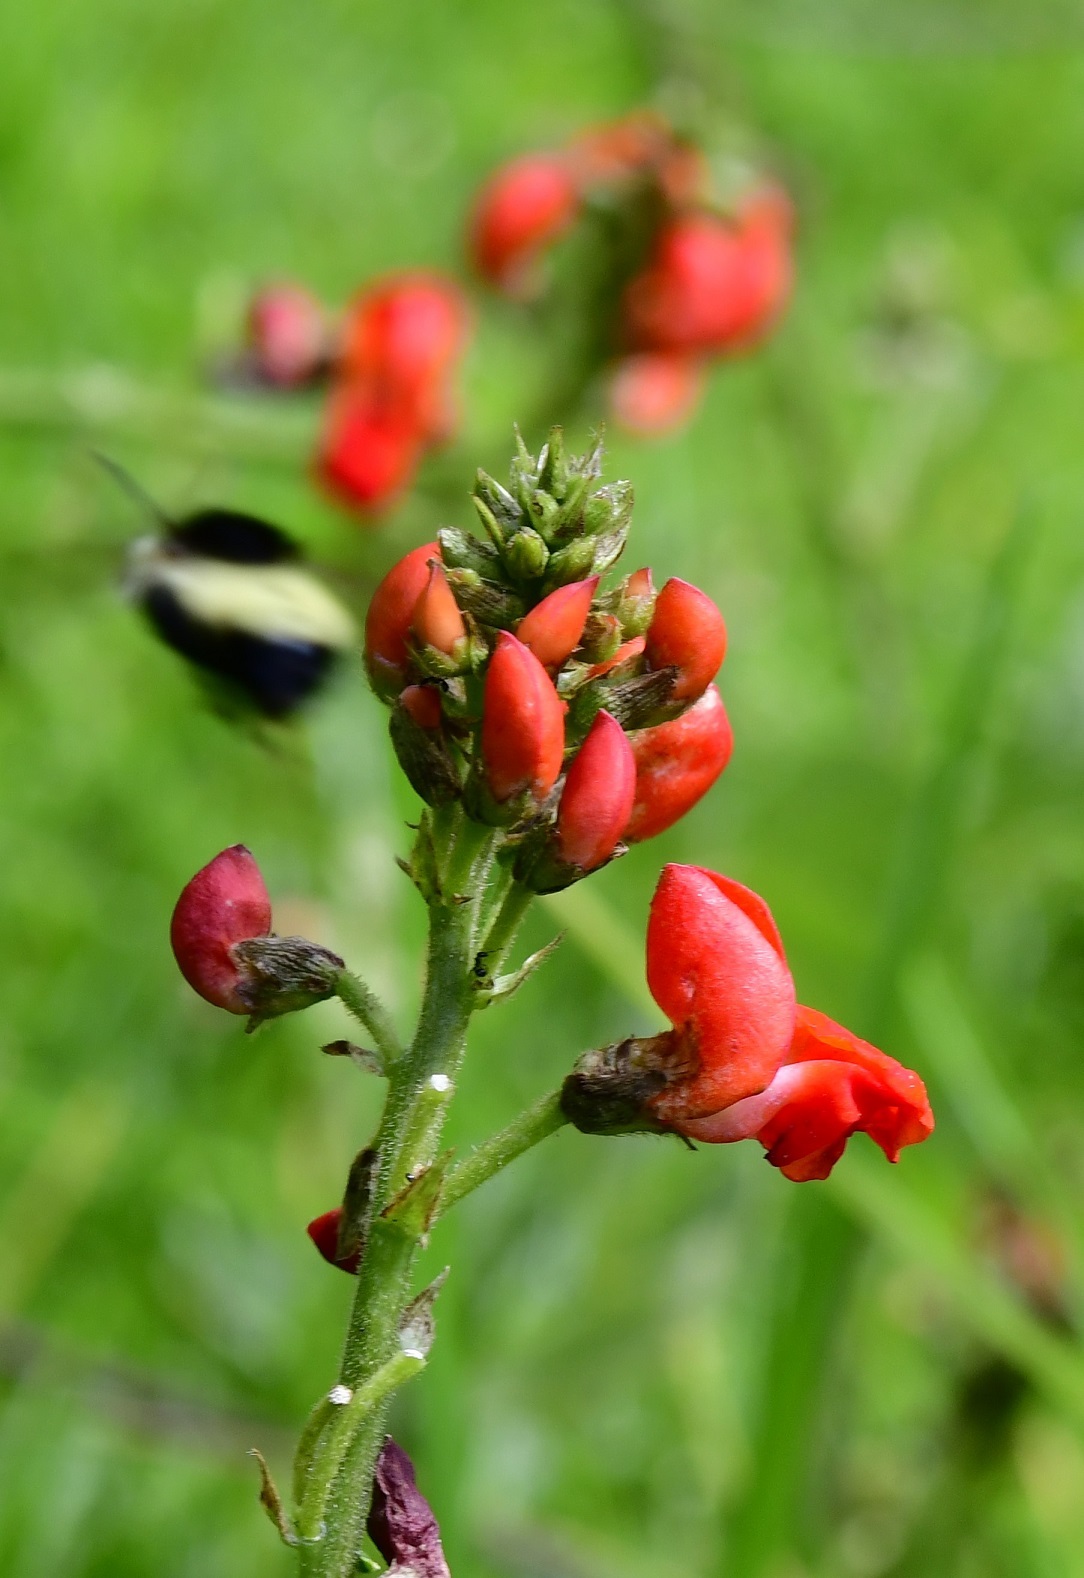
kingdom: Plantae
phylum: Tracheophyta
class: Magnoliopsida
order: Fabales
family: Fabaceae
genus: Phaseolus
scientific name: Phaseolus coccineus
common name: Runner bean
